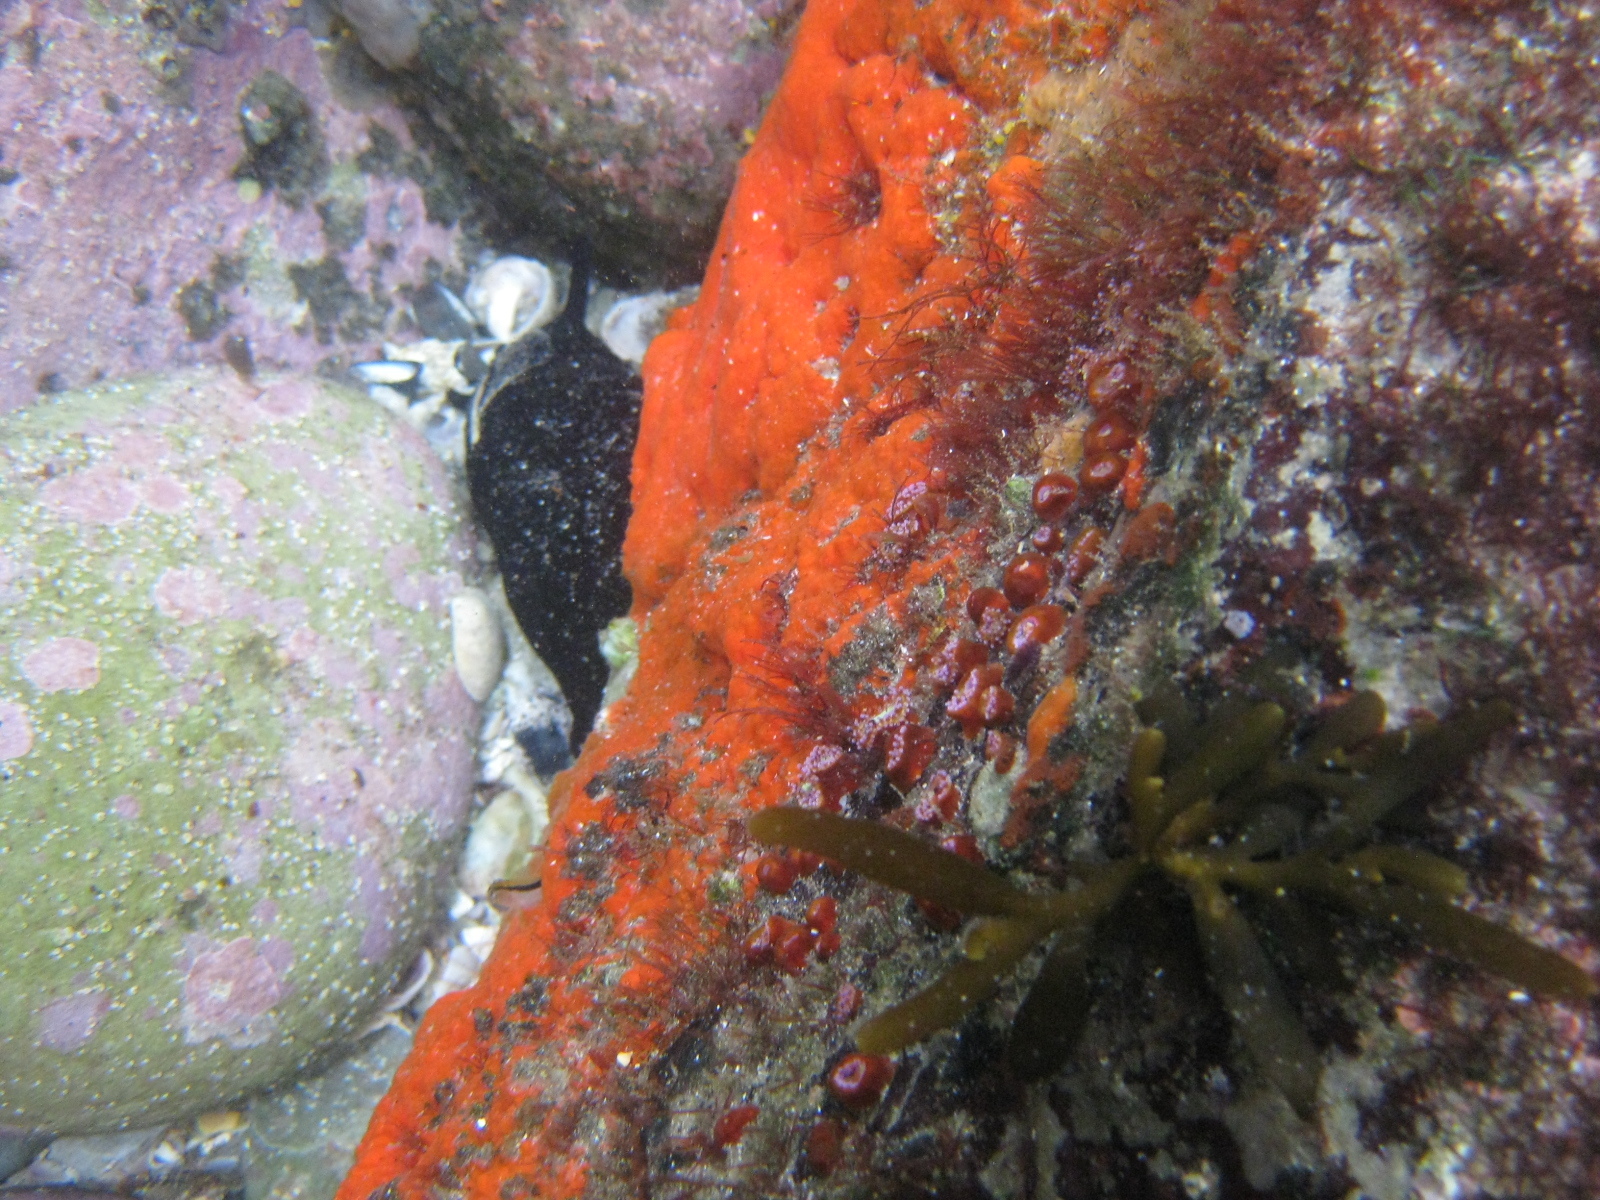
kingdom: Animalia
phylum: Porifera
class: Demospongiae
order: Poecilosclerida
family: Crellidae
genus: Crella
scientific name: Crella incrustans
